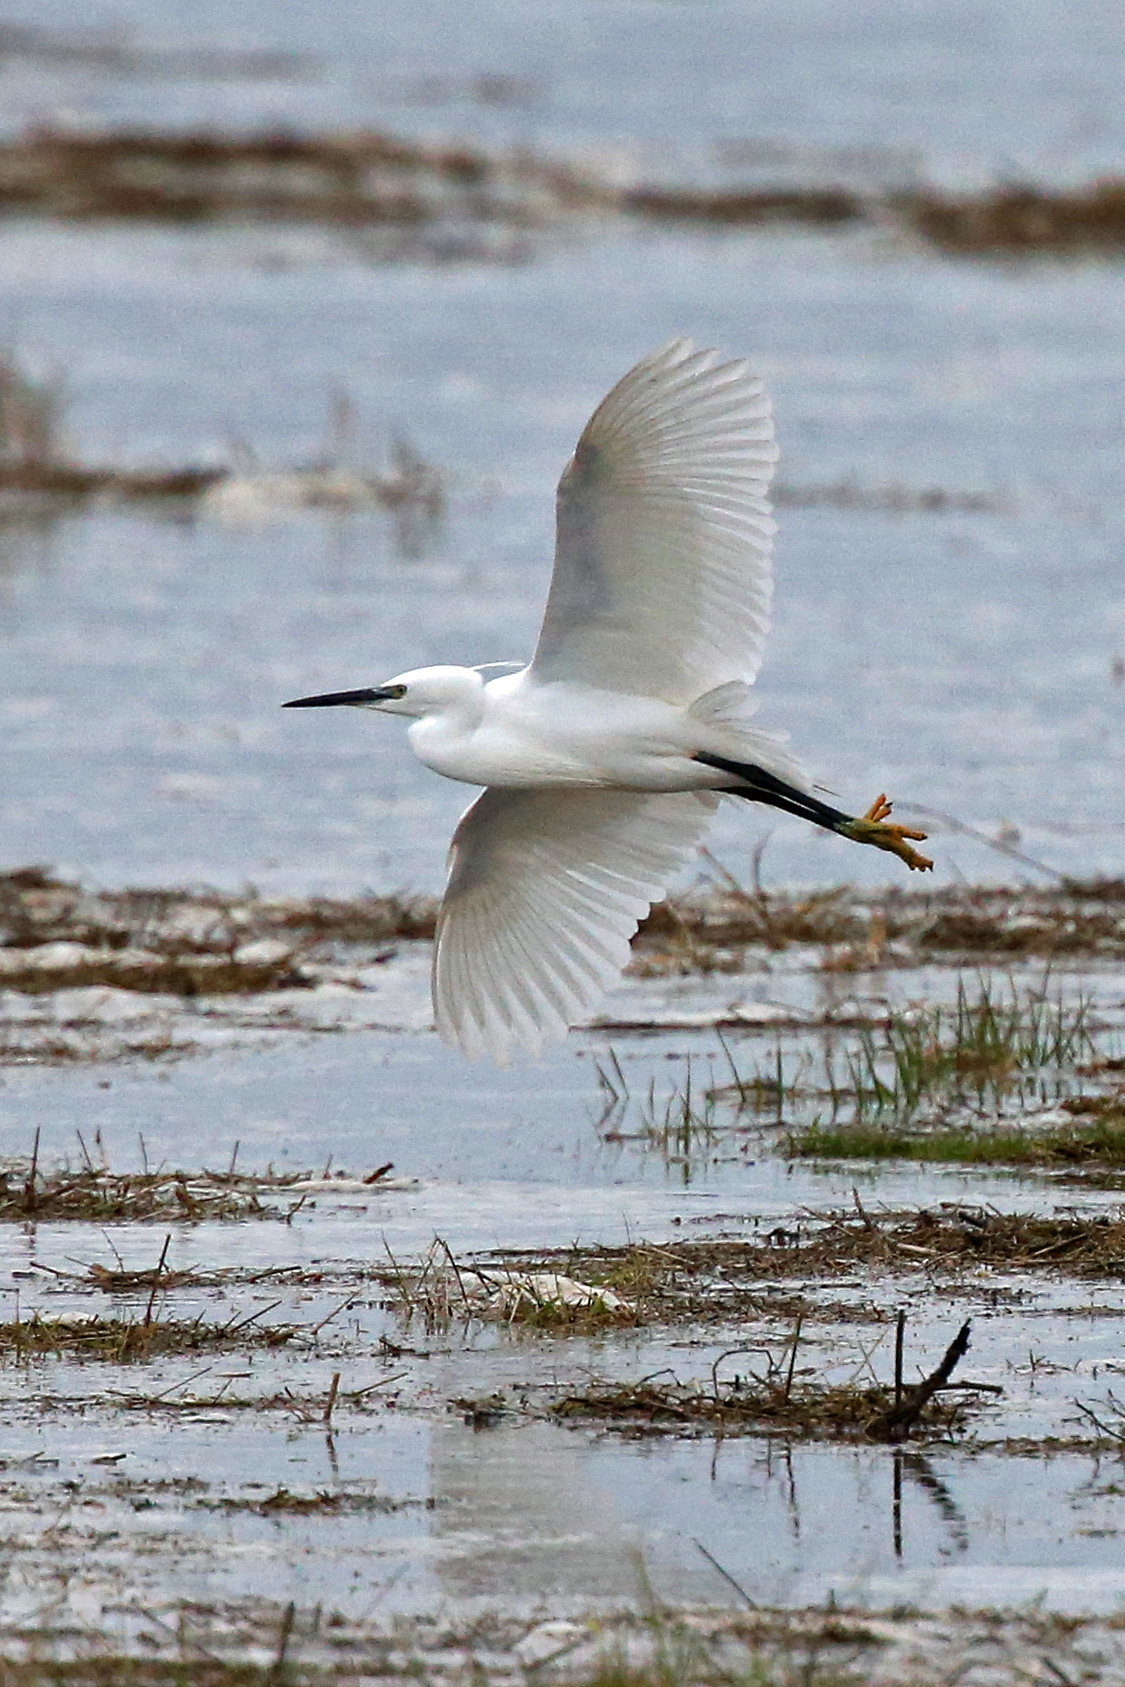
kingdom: Animalia
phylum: Chordata
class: Aves
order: Pelecaniformes
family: Ardeidae
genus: Egretta
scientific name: Egretta garzetta
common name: Little egret
